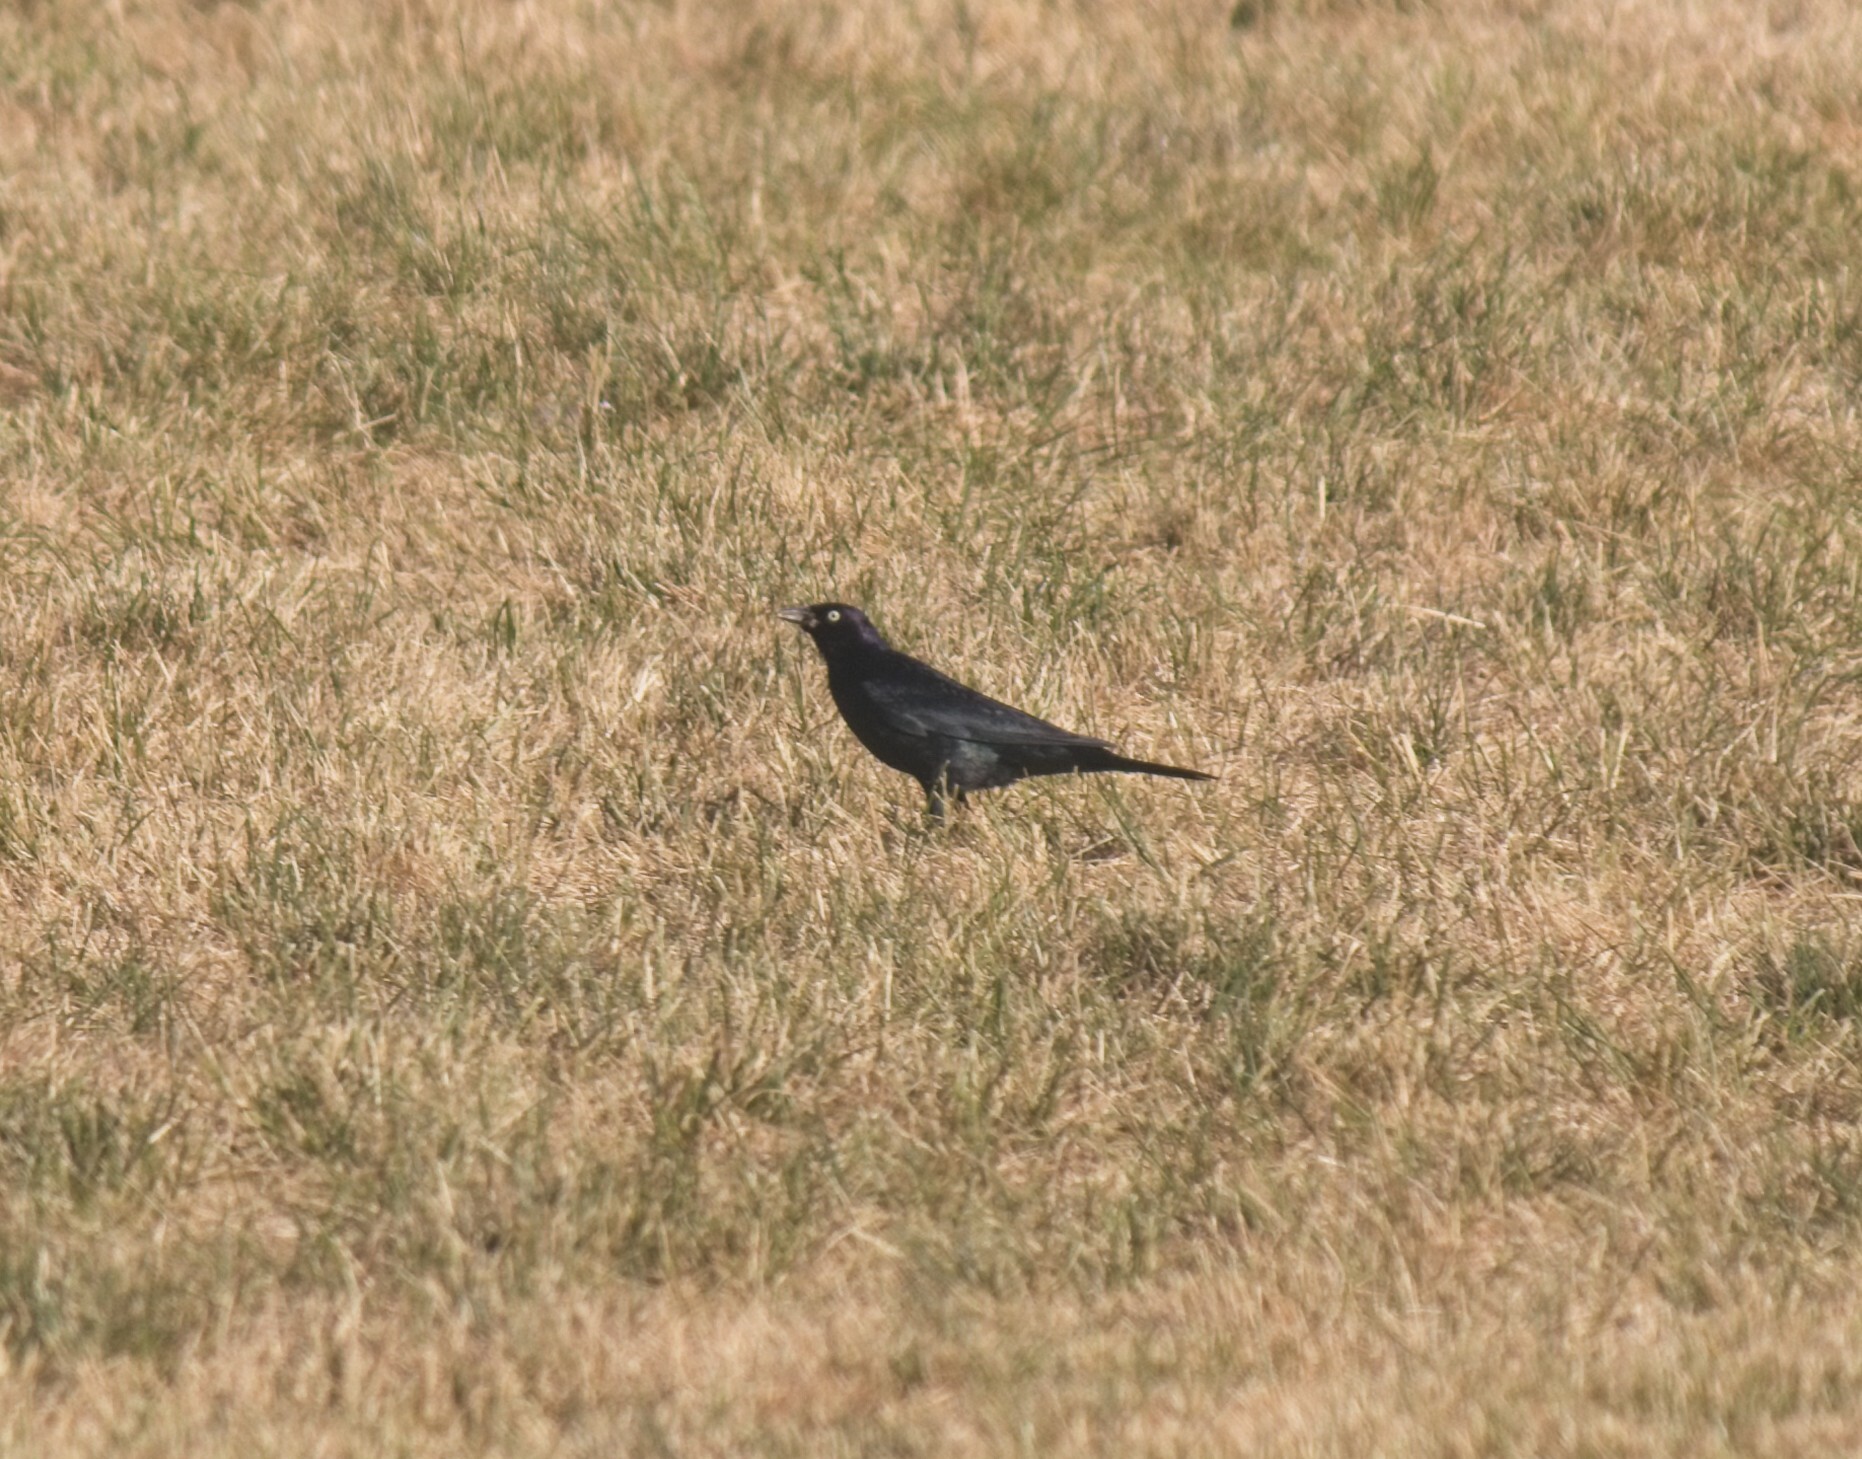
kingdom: Animalia
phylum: Chordata
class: Aves
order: Passeriformes
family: Icteridae
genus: Euphagus
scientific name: Euphagus cyanocephalus
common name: Brewer's blackbird
